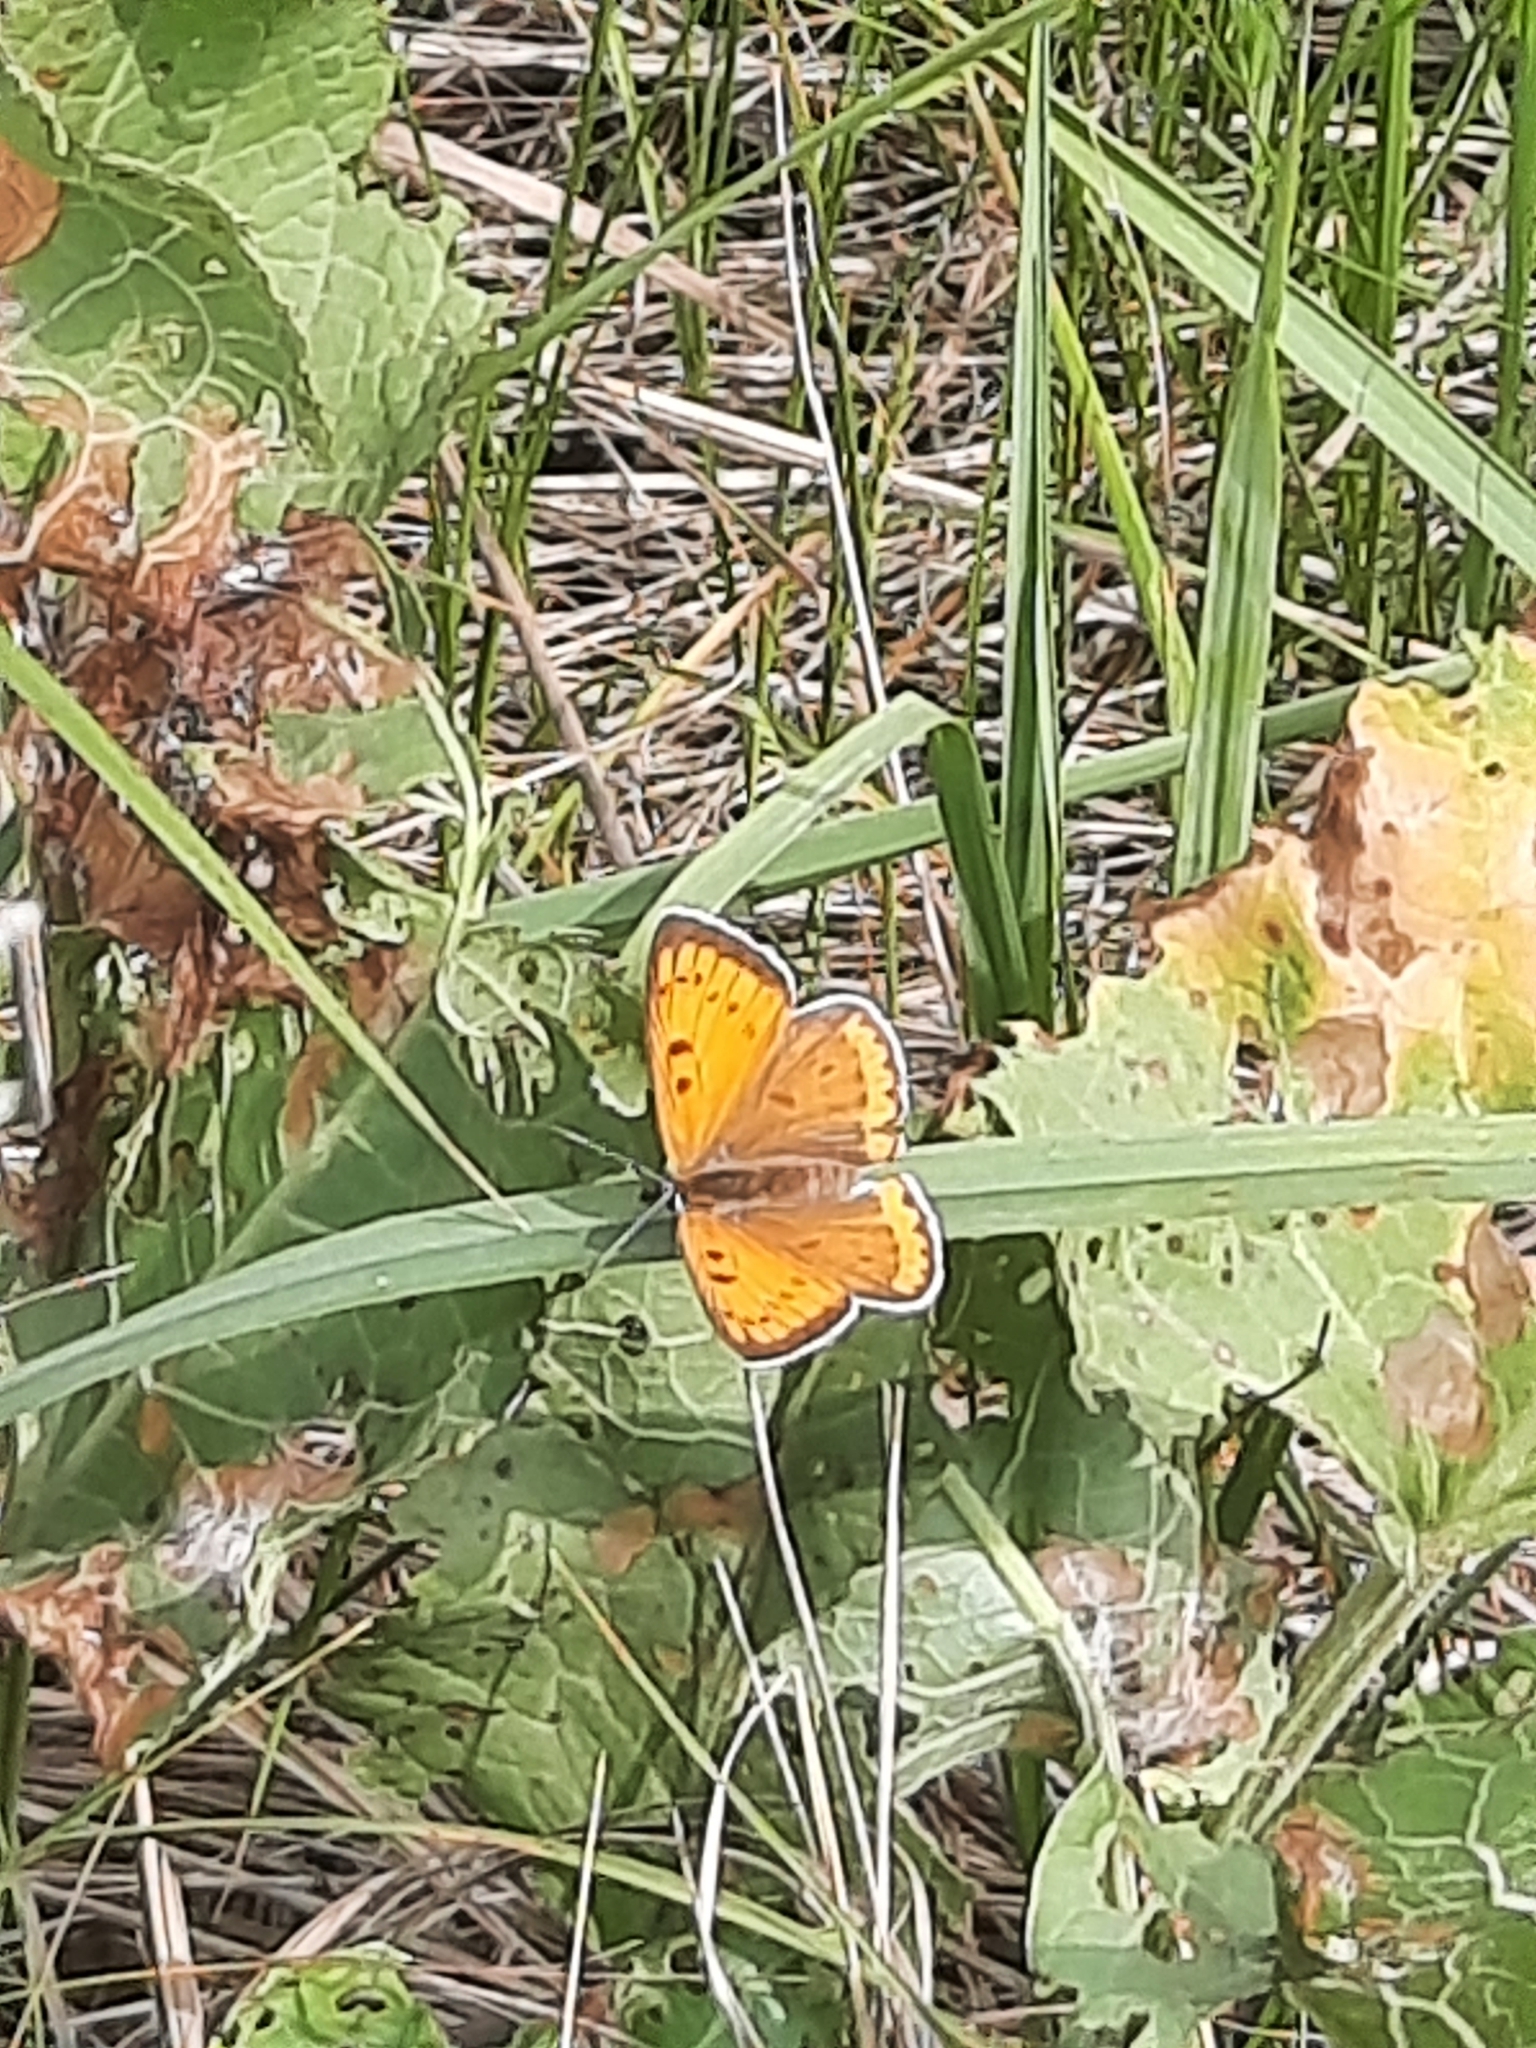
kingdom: Animalia
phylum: Arthropoda
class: Insecta
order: Lepidoptera
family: Lycaenidae
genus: Lycaena
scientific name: Lycaena dispar
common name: Large copper
